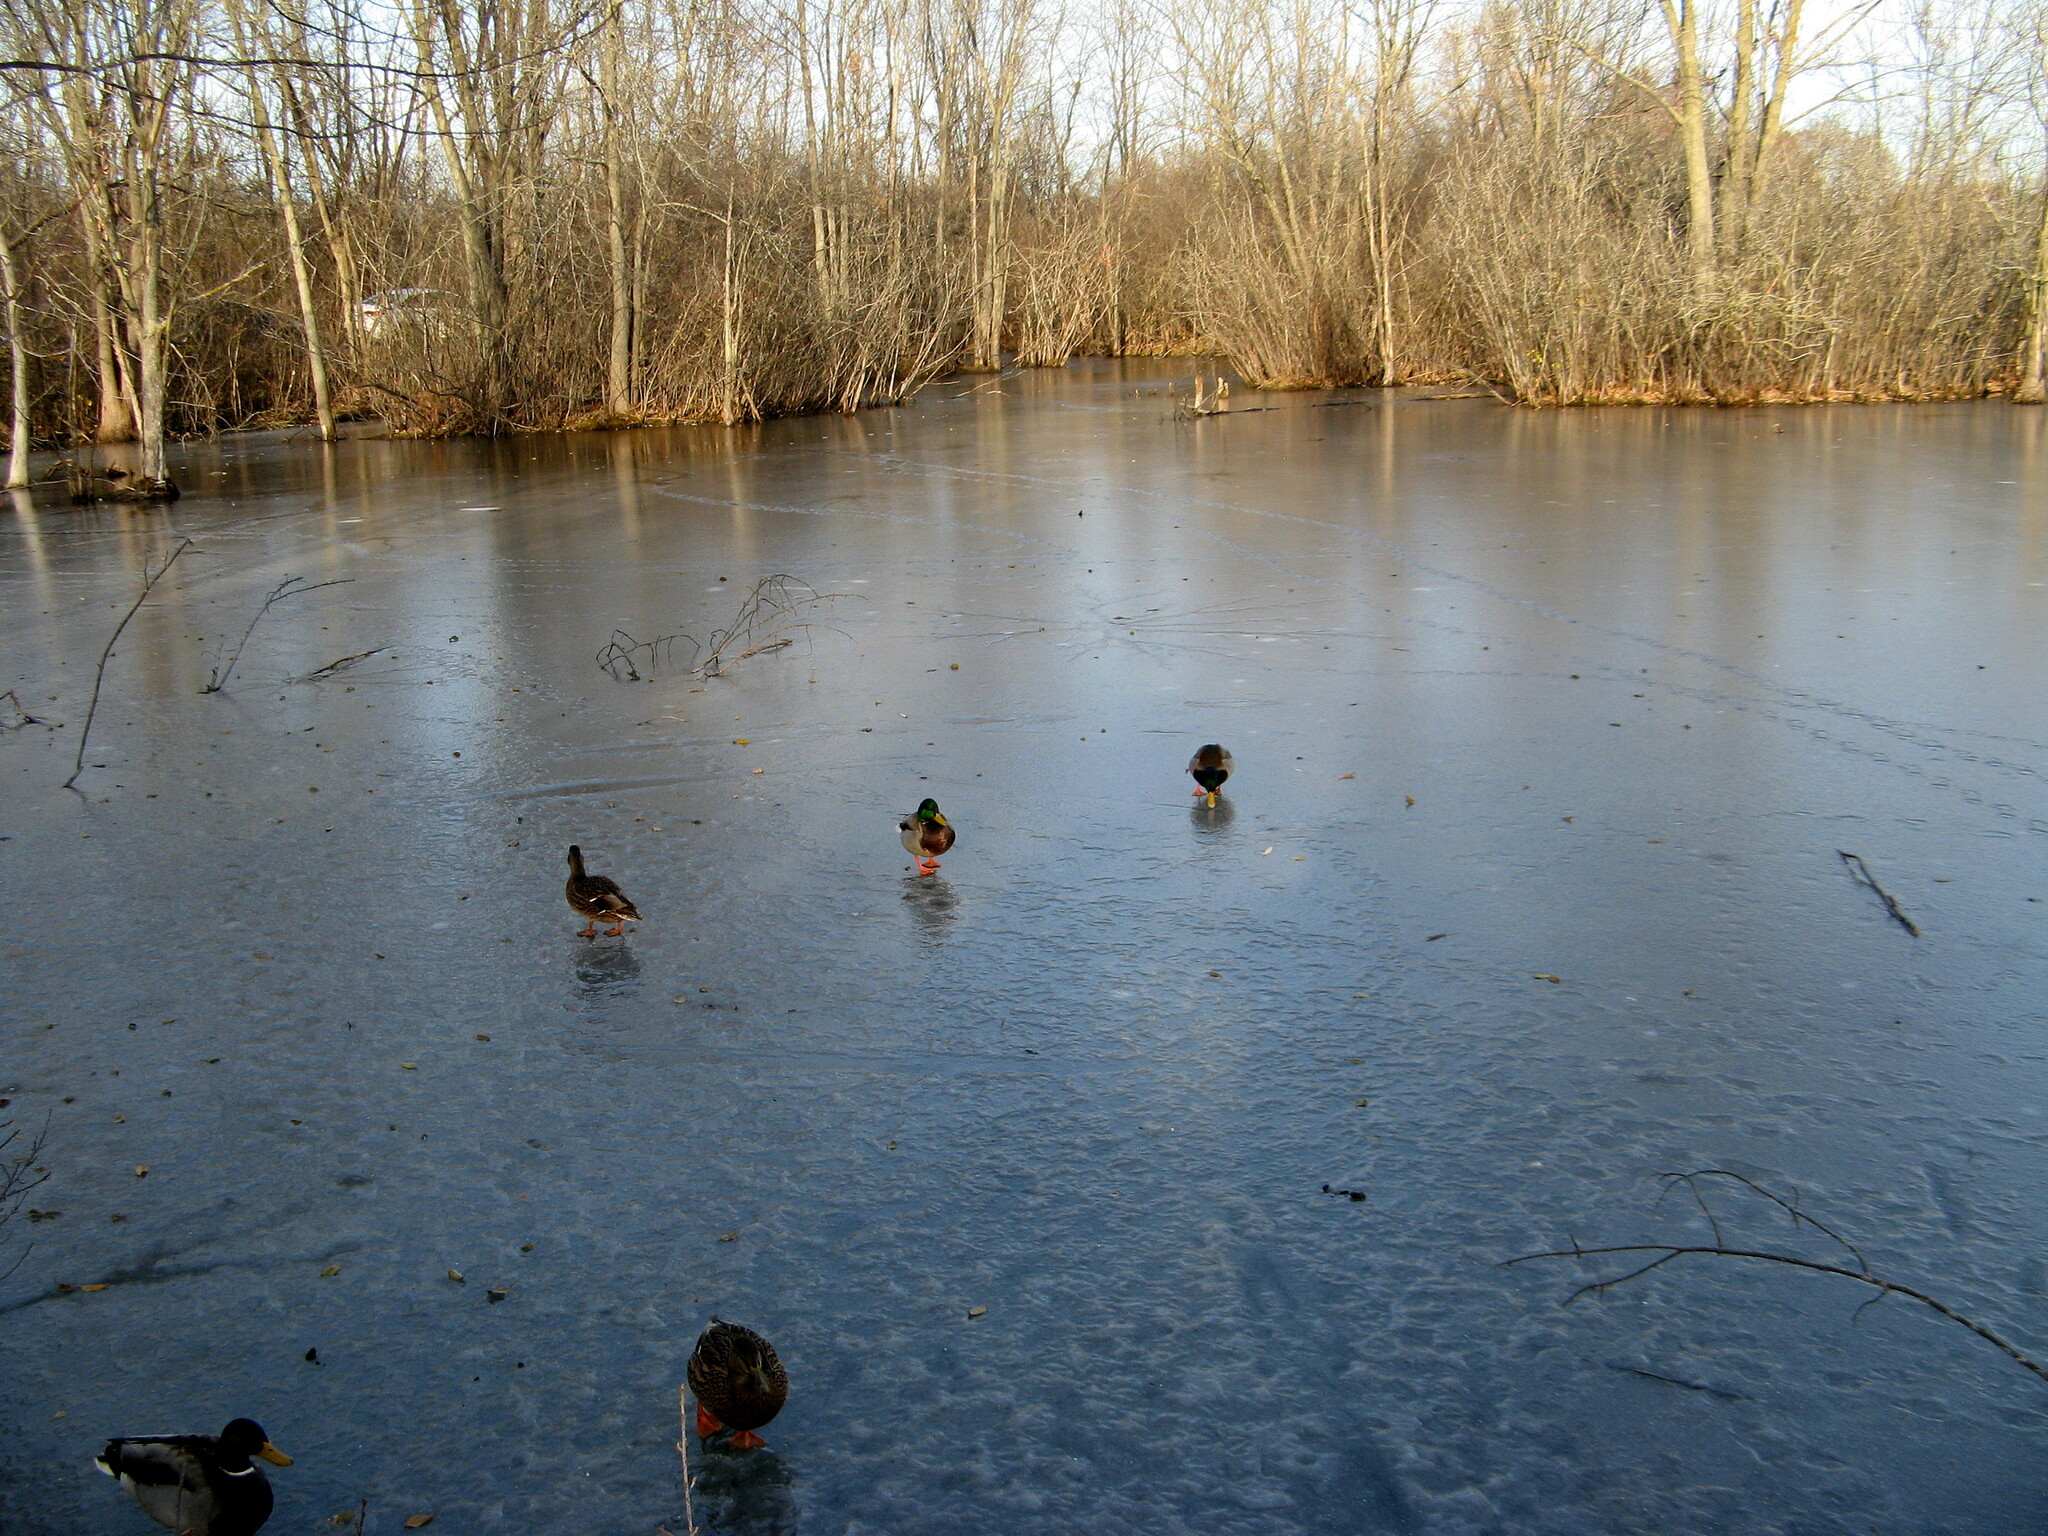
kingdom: Animalia
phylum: Chordata
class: Aves
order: Anseriformes
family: Anatidae
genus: Anas
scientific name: Anas platyrhynchos
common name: Mallard
